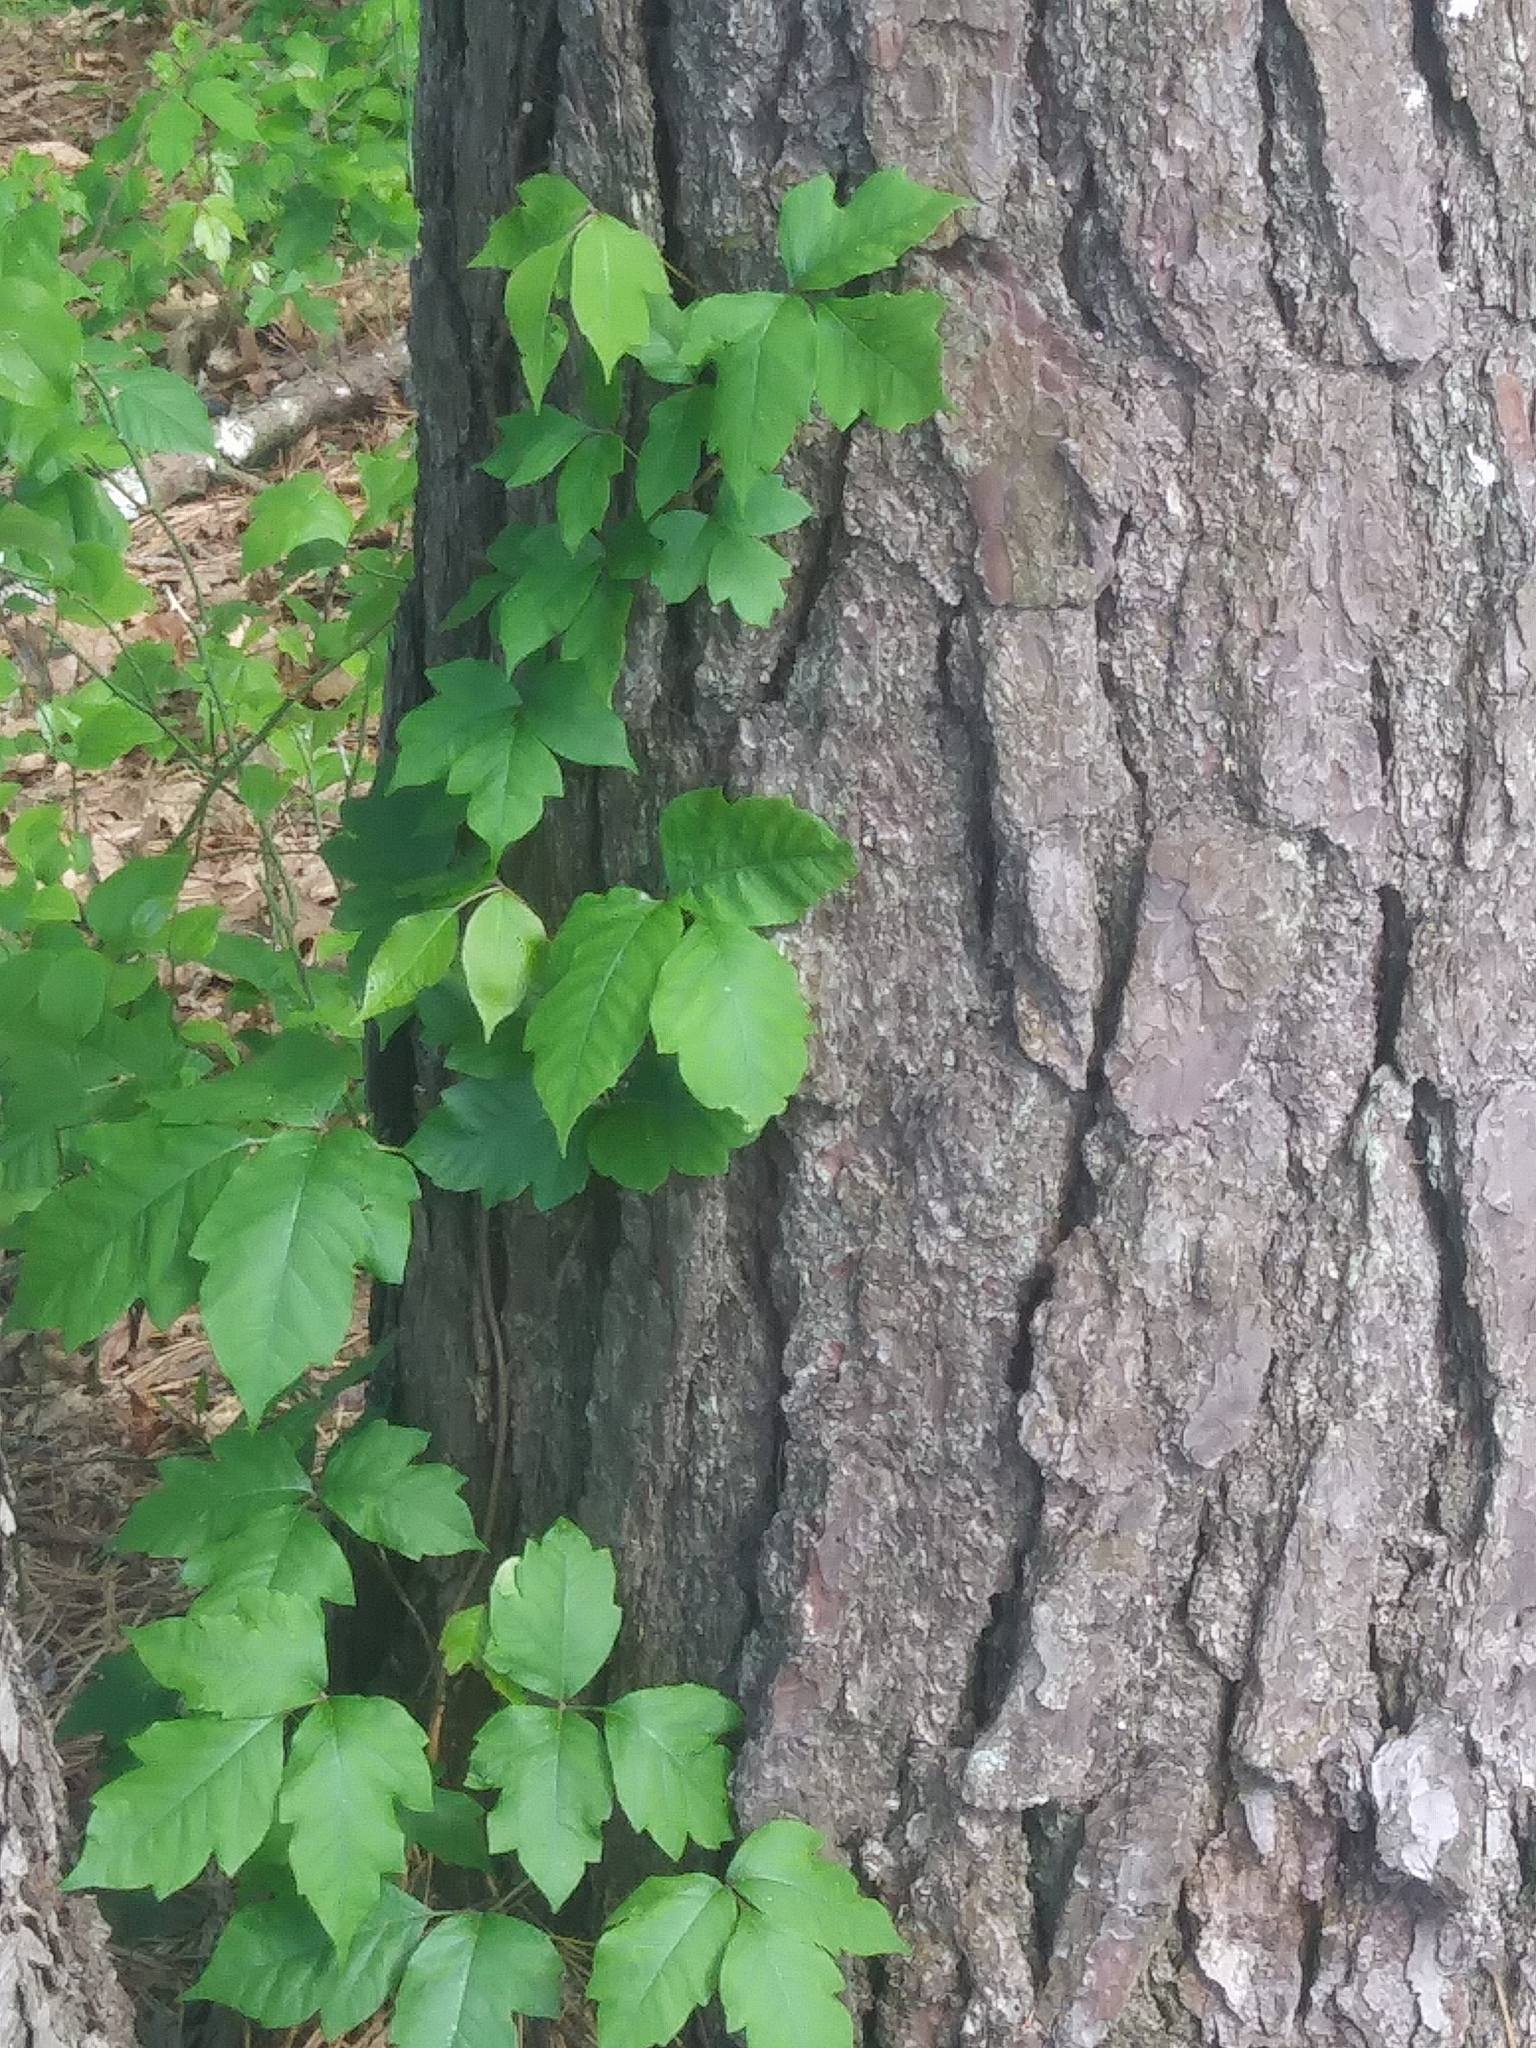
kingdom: Plantae
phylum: Tracheophyta
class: Magnoliopsida
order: Sapindales
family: Anacardiaceae
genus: Toxicodendron
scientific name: Toxicodendron radicans
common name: Poison ivy
